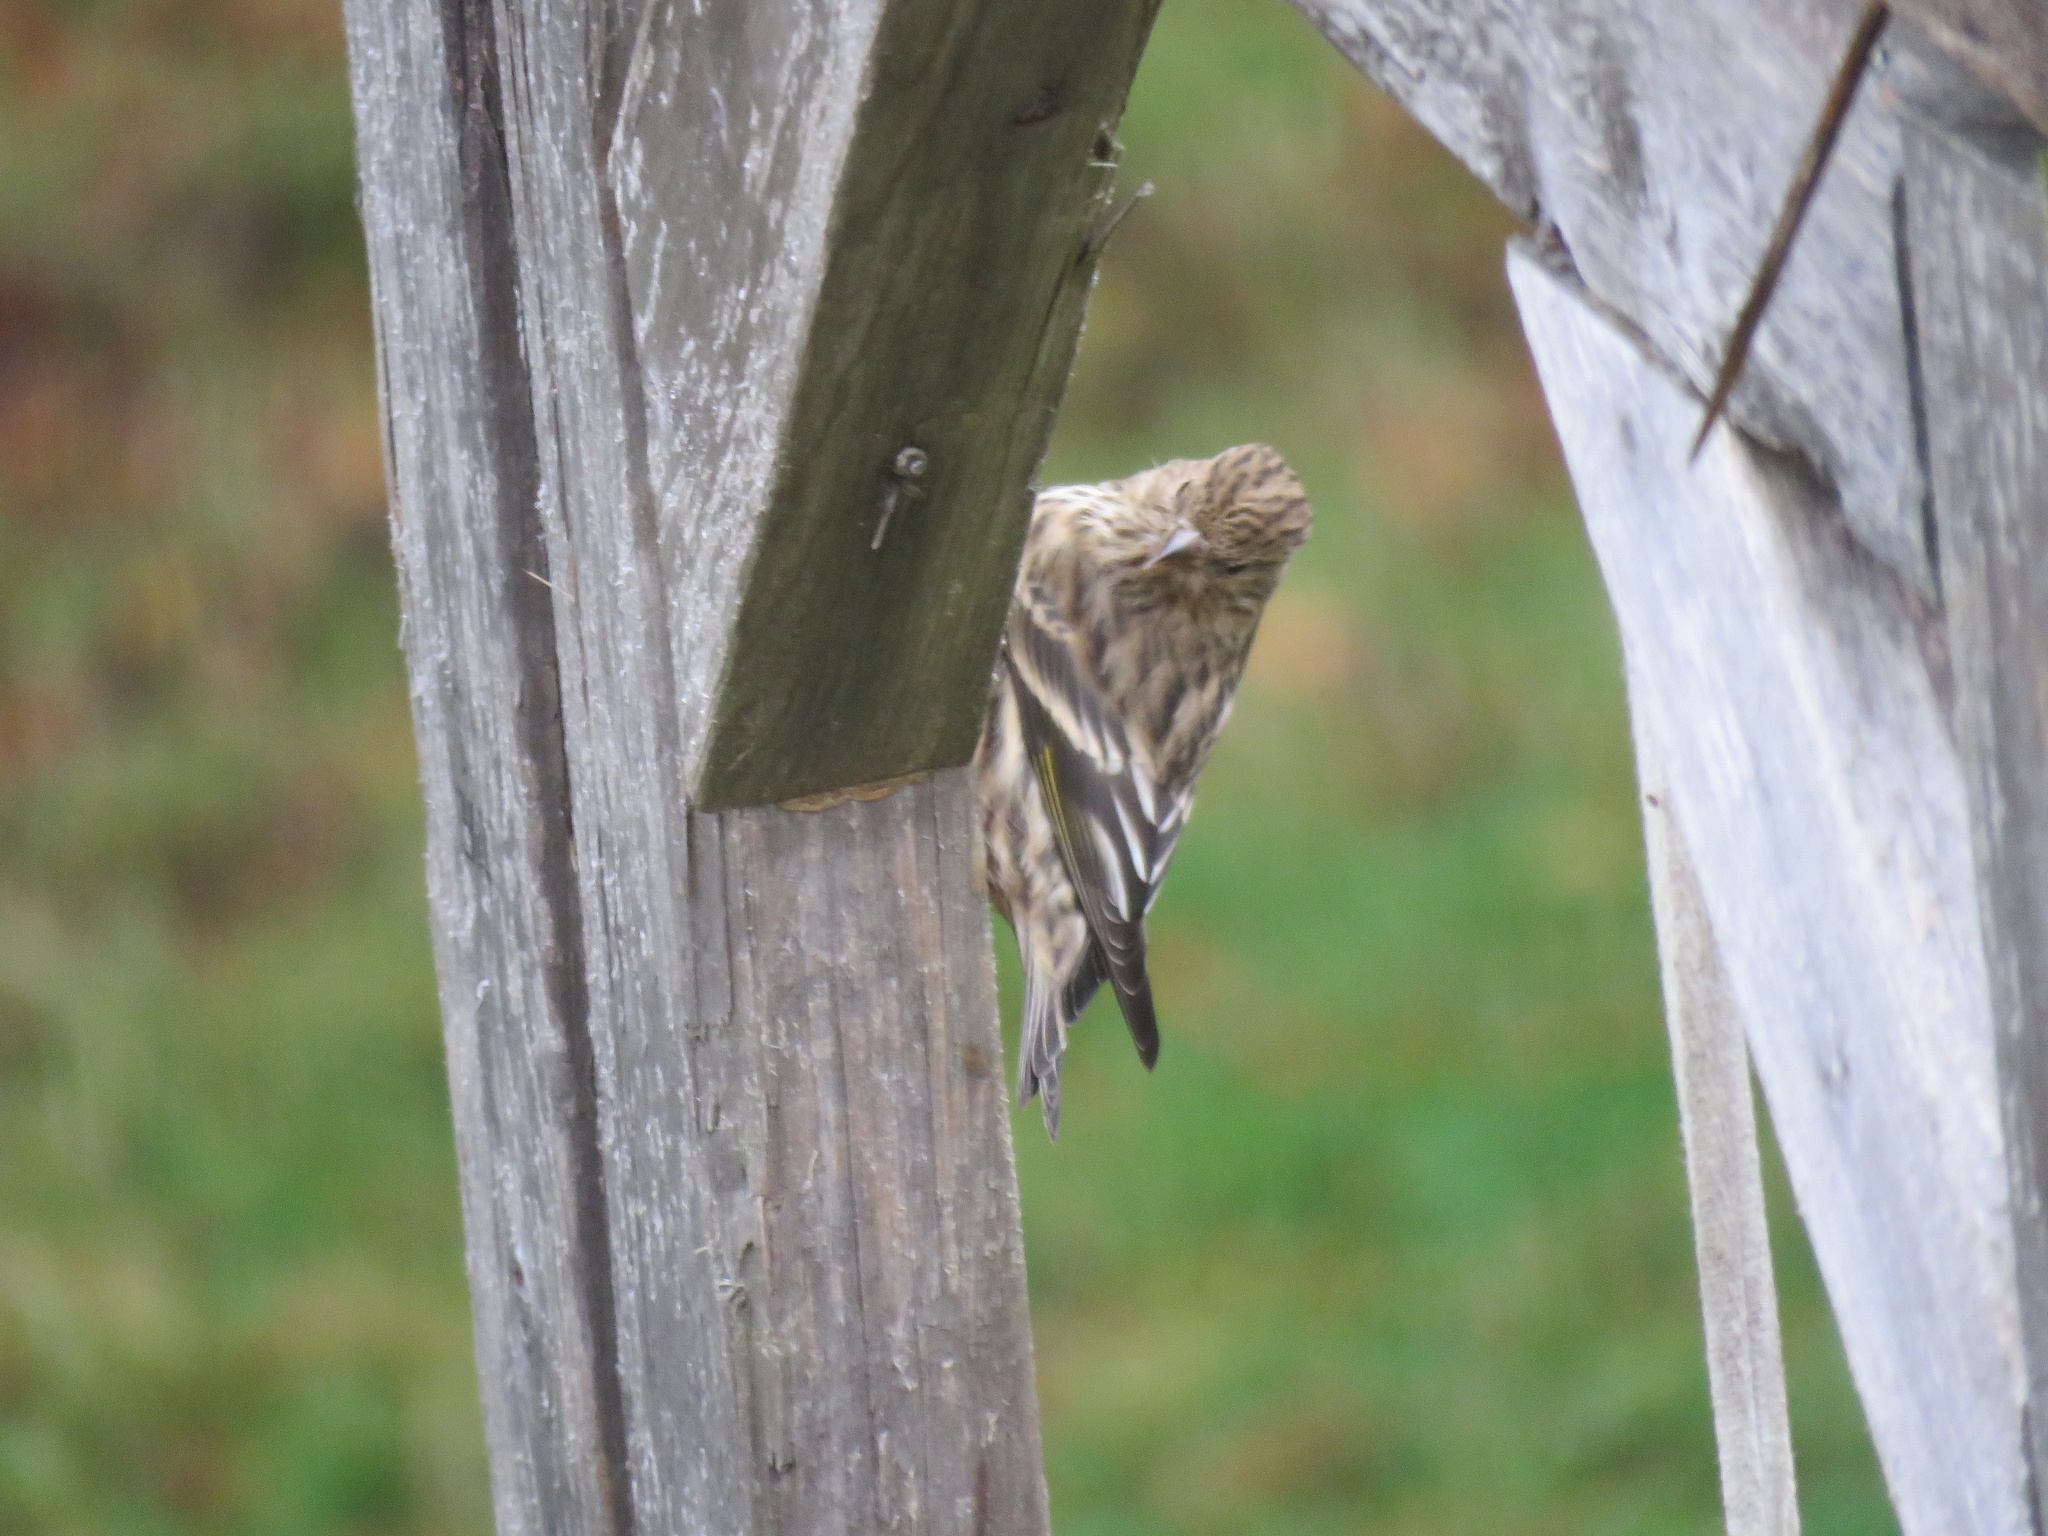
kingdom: Animalia
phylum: Chordata
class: Aves
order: Passeriformes
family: Fringillidae
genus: Spinus
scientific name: Spinus pinus
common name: Pine siskin
